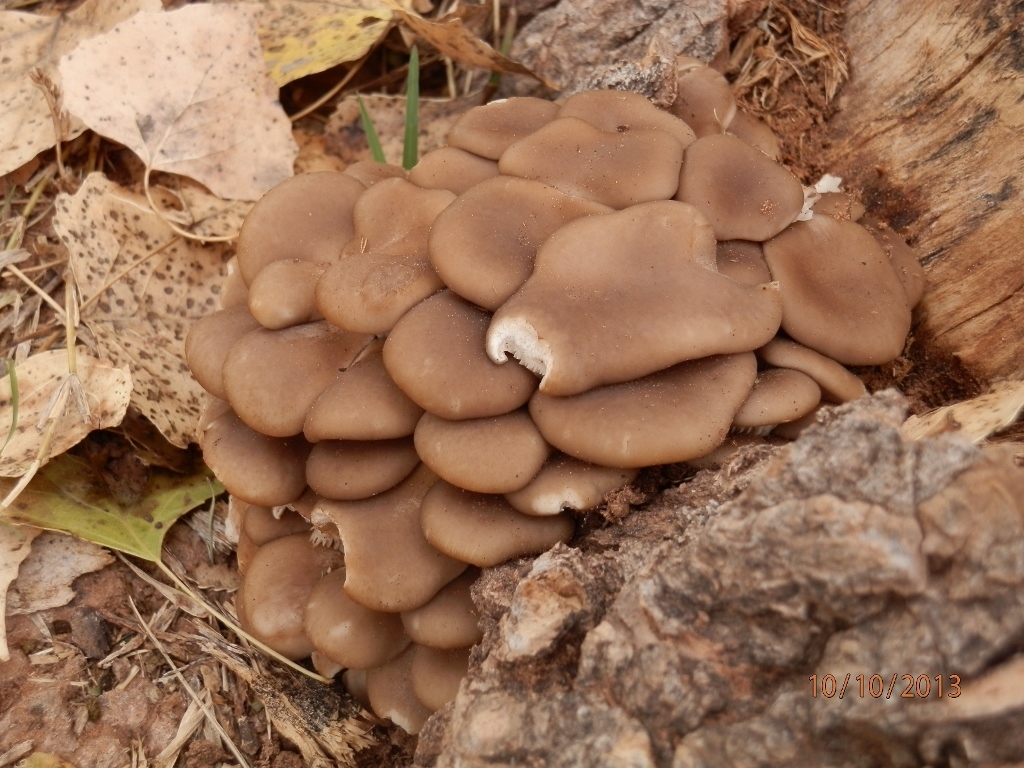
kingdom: Fungi
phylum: Basidiomycota
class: Agaricomycetes
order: Agaricales
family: Pleurotaceae
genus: Pleurotus
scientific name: Pleurotus ostreatus
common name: Oyster mushroom
